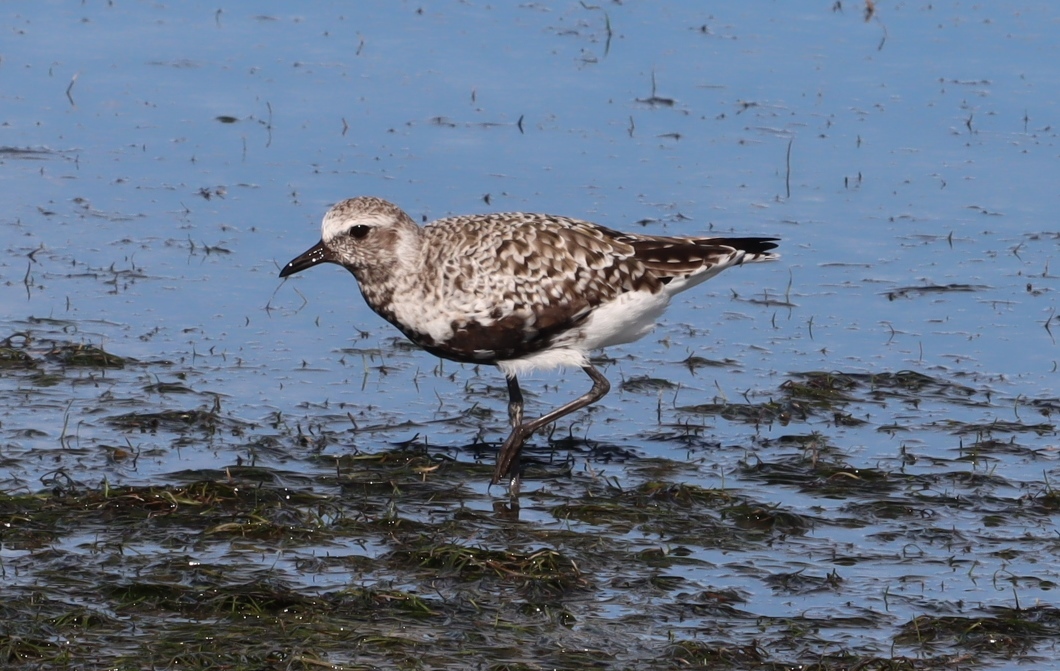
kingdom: Animalia
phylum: Chordata
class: Aves
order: Charadriiformes
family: Charadriidae
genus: Pluvialis
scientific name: Pluvialis squatarola
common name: Grey plover
